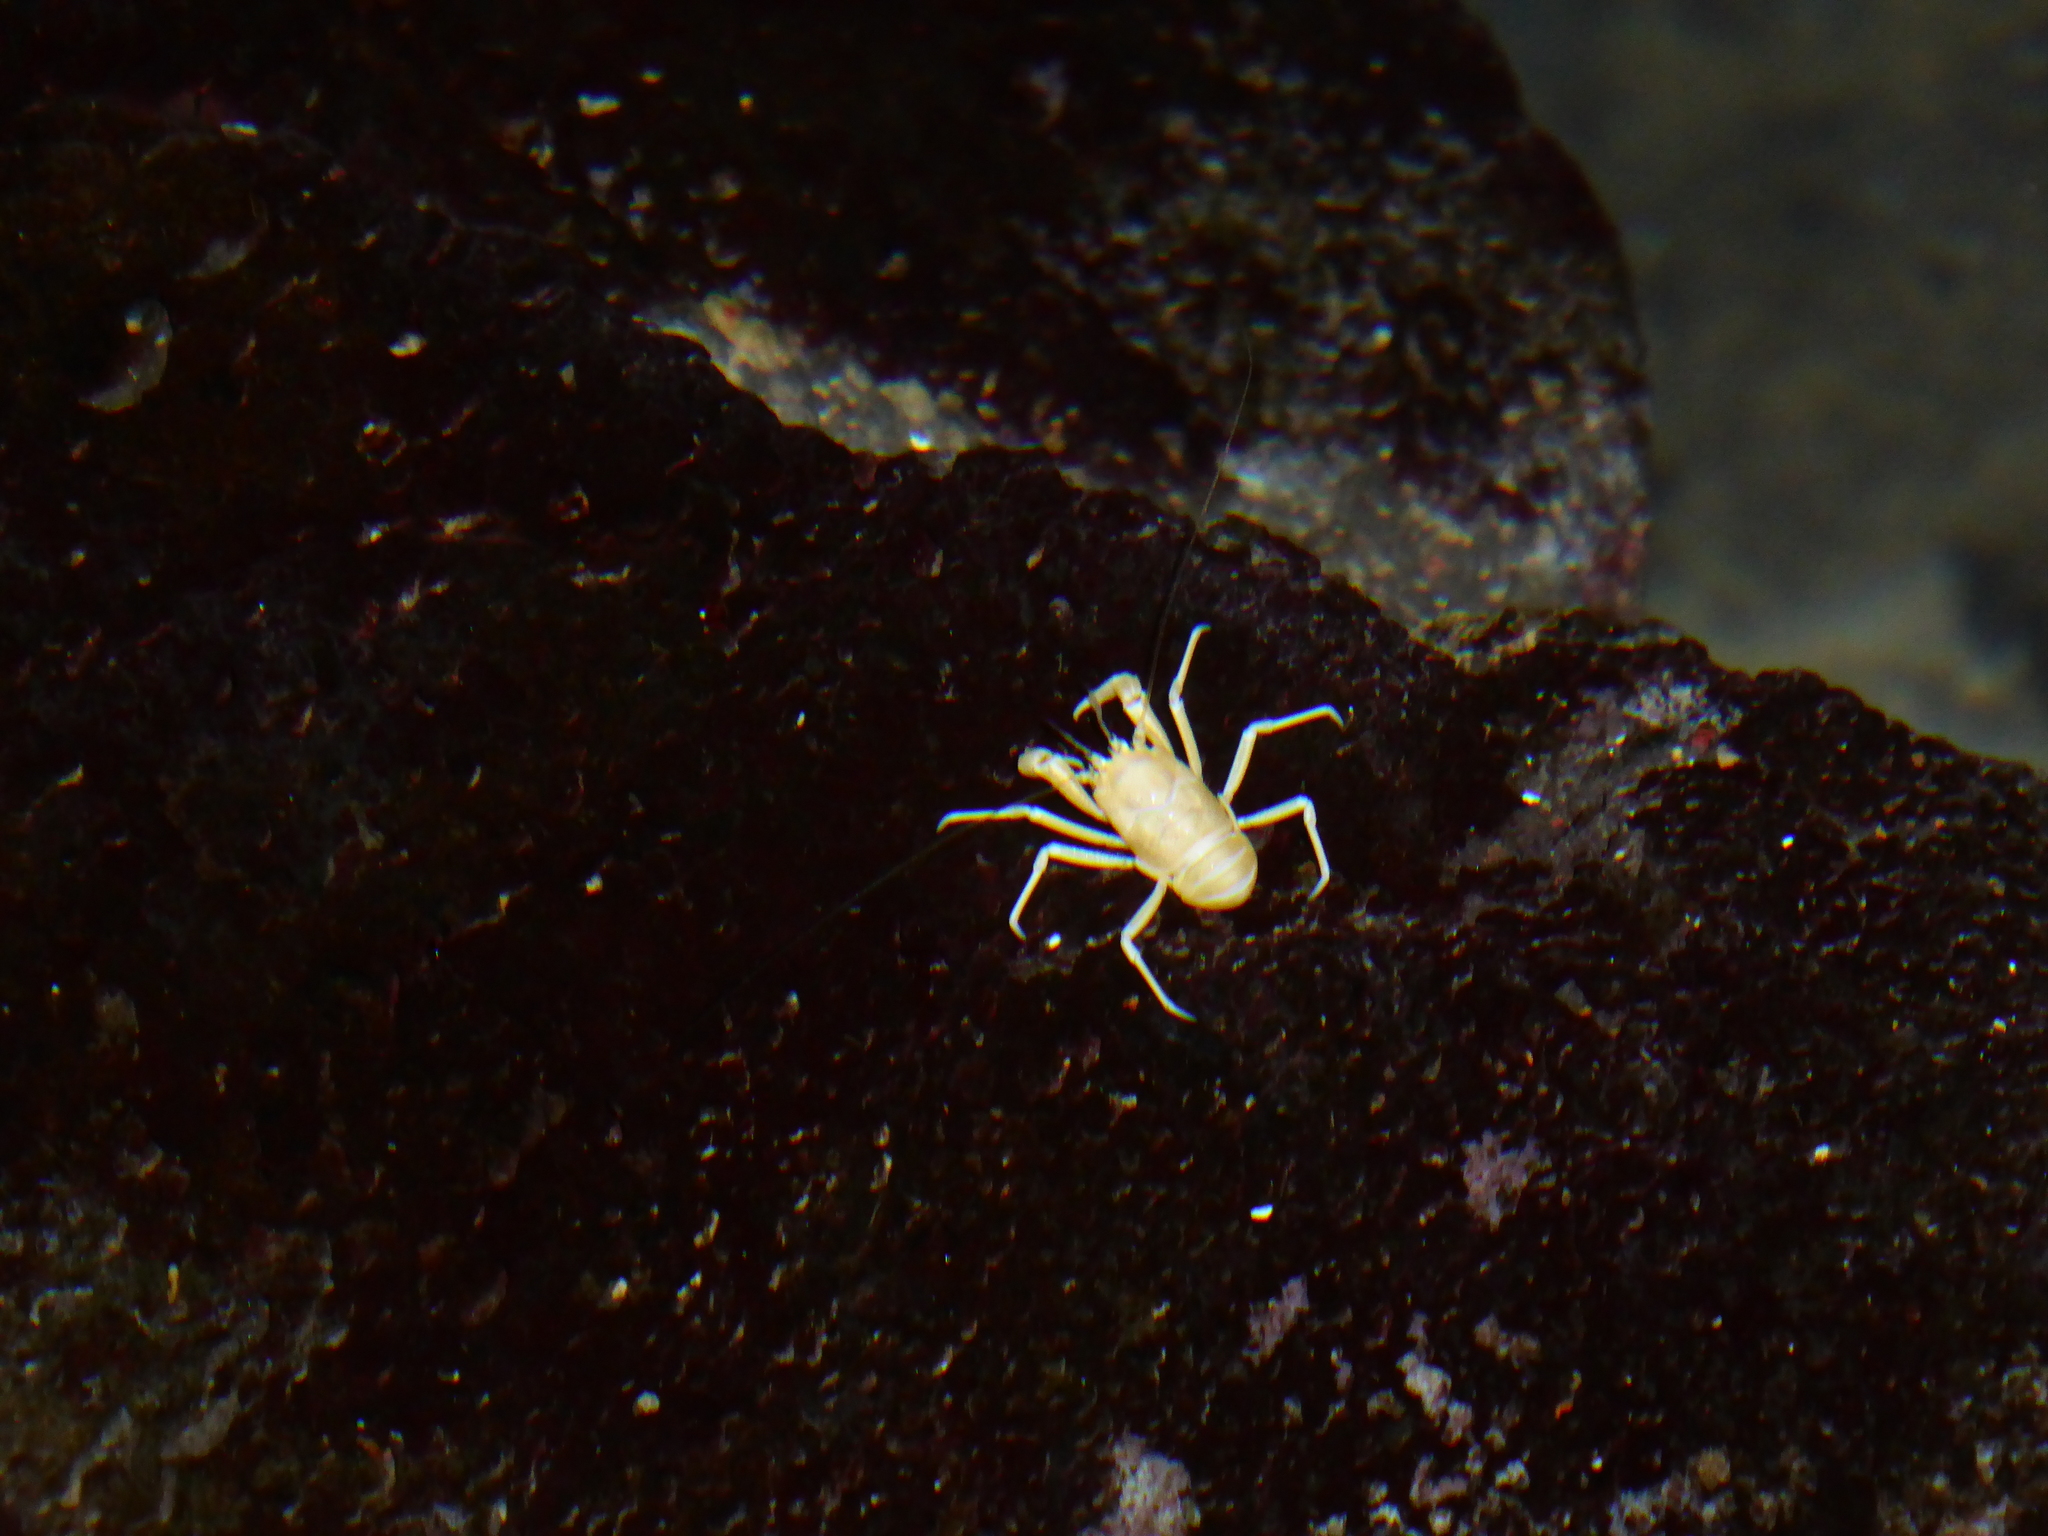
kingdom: Animalia
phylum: Arthropoda
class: Malacostraca
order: Decapoda
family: Munidopsidae
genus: Munidopsis
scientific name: Munidopsis polymorpha
